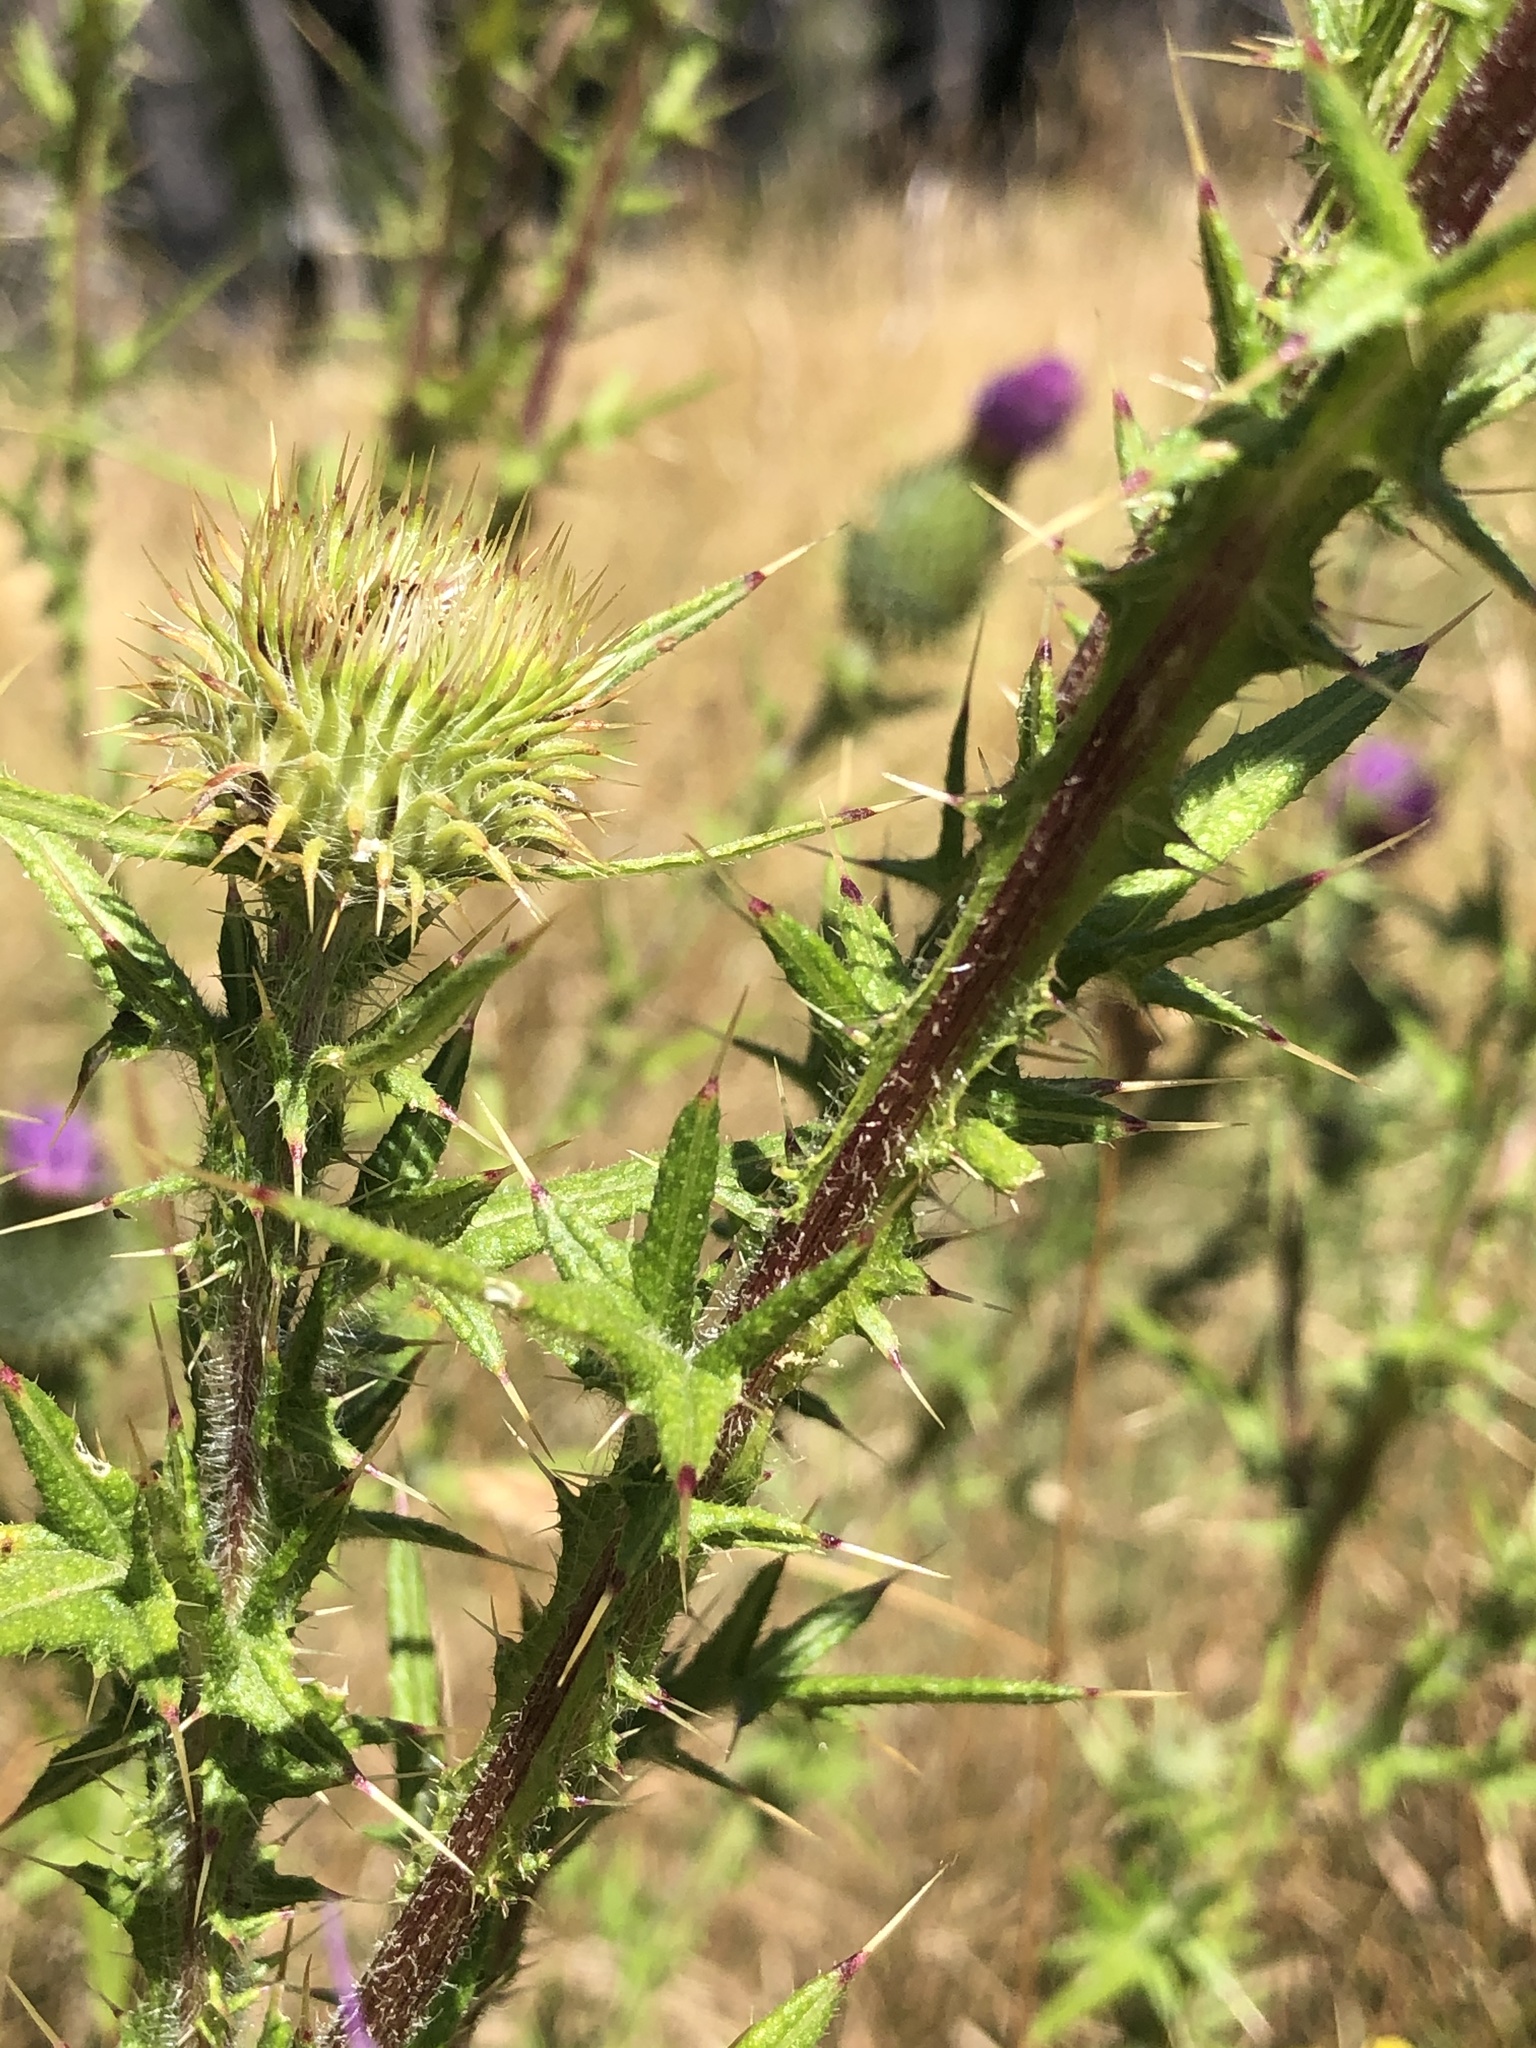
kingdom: Plantae
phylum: Tracheophyta
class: Magnoliopsida
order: Asterales
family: Asteraceae
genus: Cirsium
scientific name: Cirsium vulgare
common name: Bull thistle
